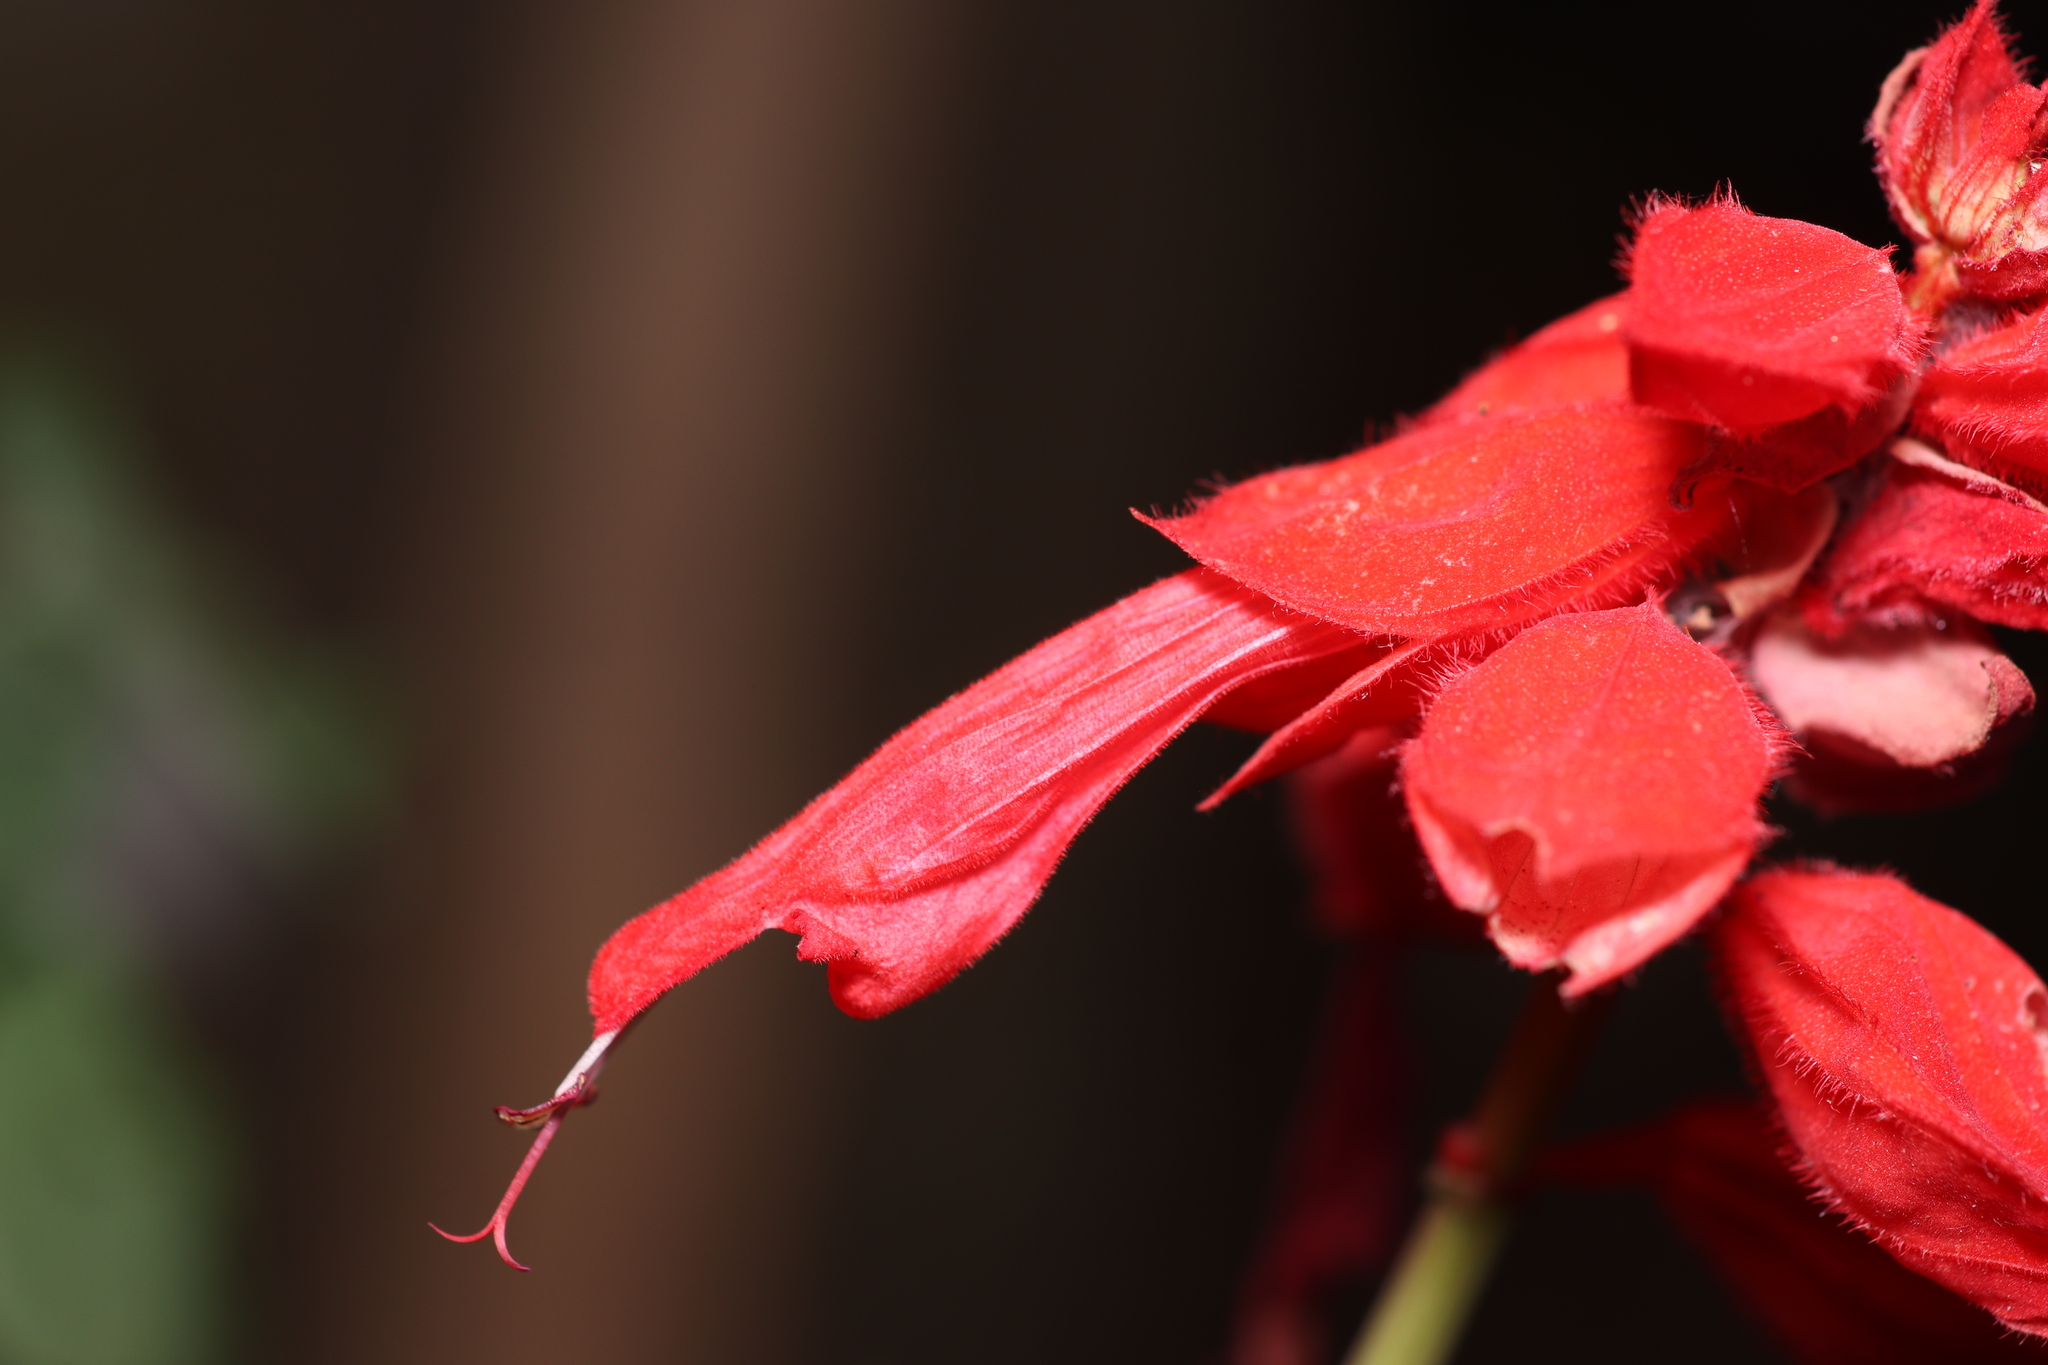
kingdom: Plantae
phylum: Tracheophyta
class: Magnoliopsida
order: Lamiales
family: Lamiaceae
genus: Salvia
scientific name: Salvia splendens
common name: Scarlet sage
